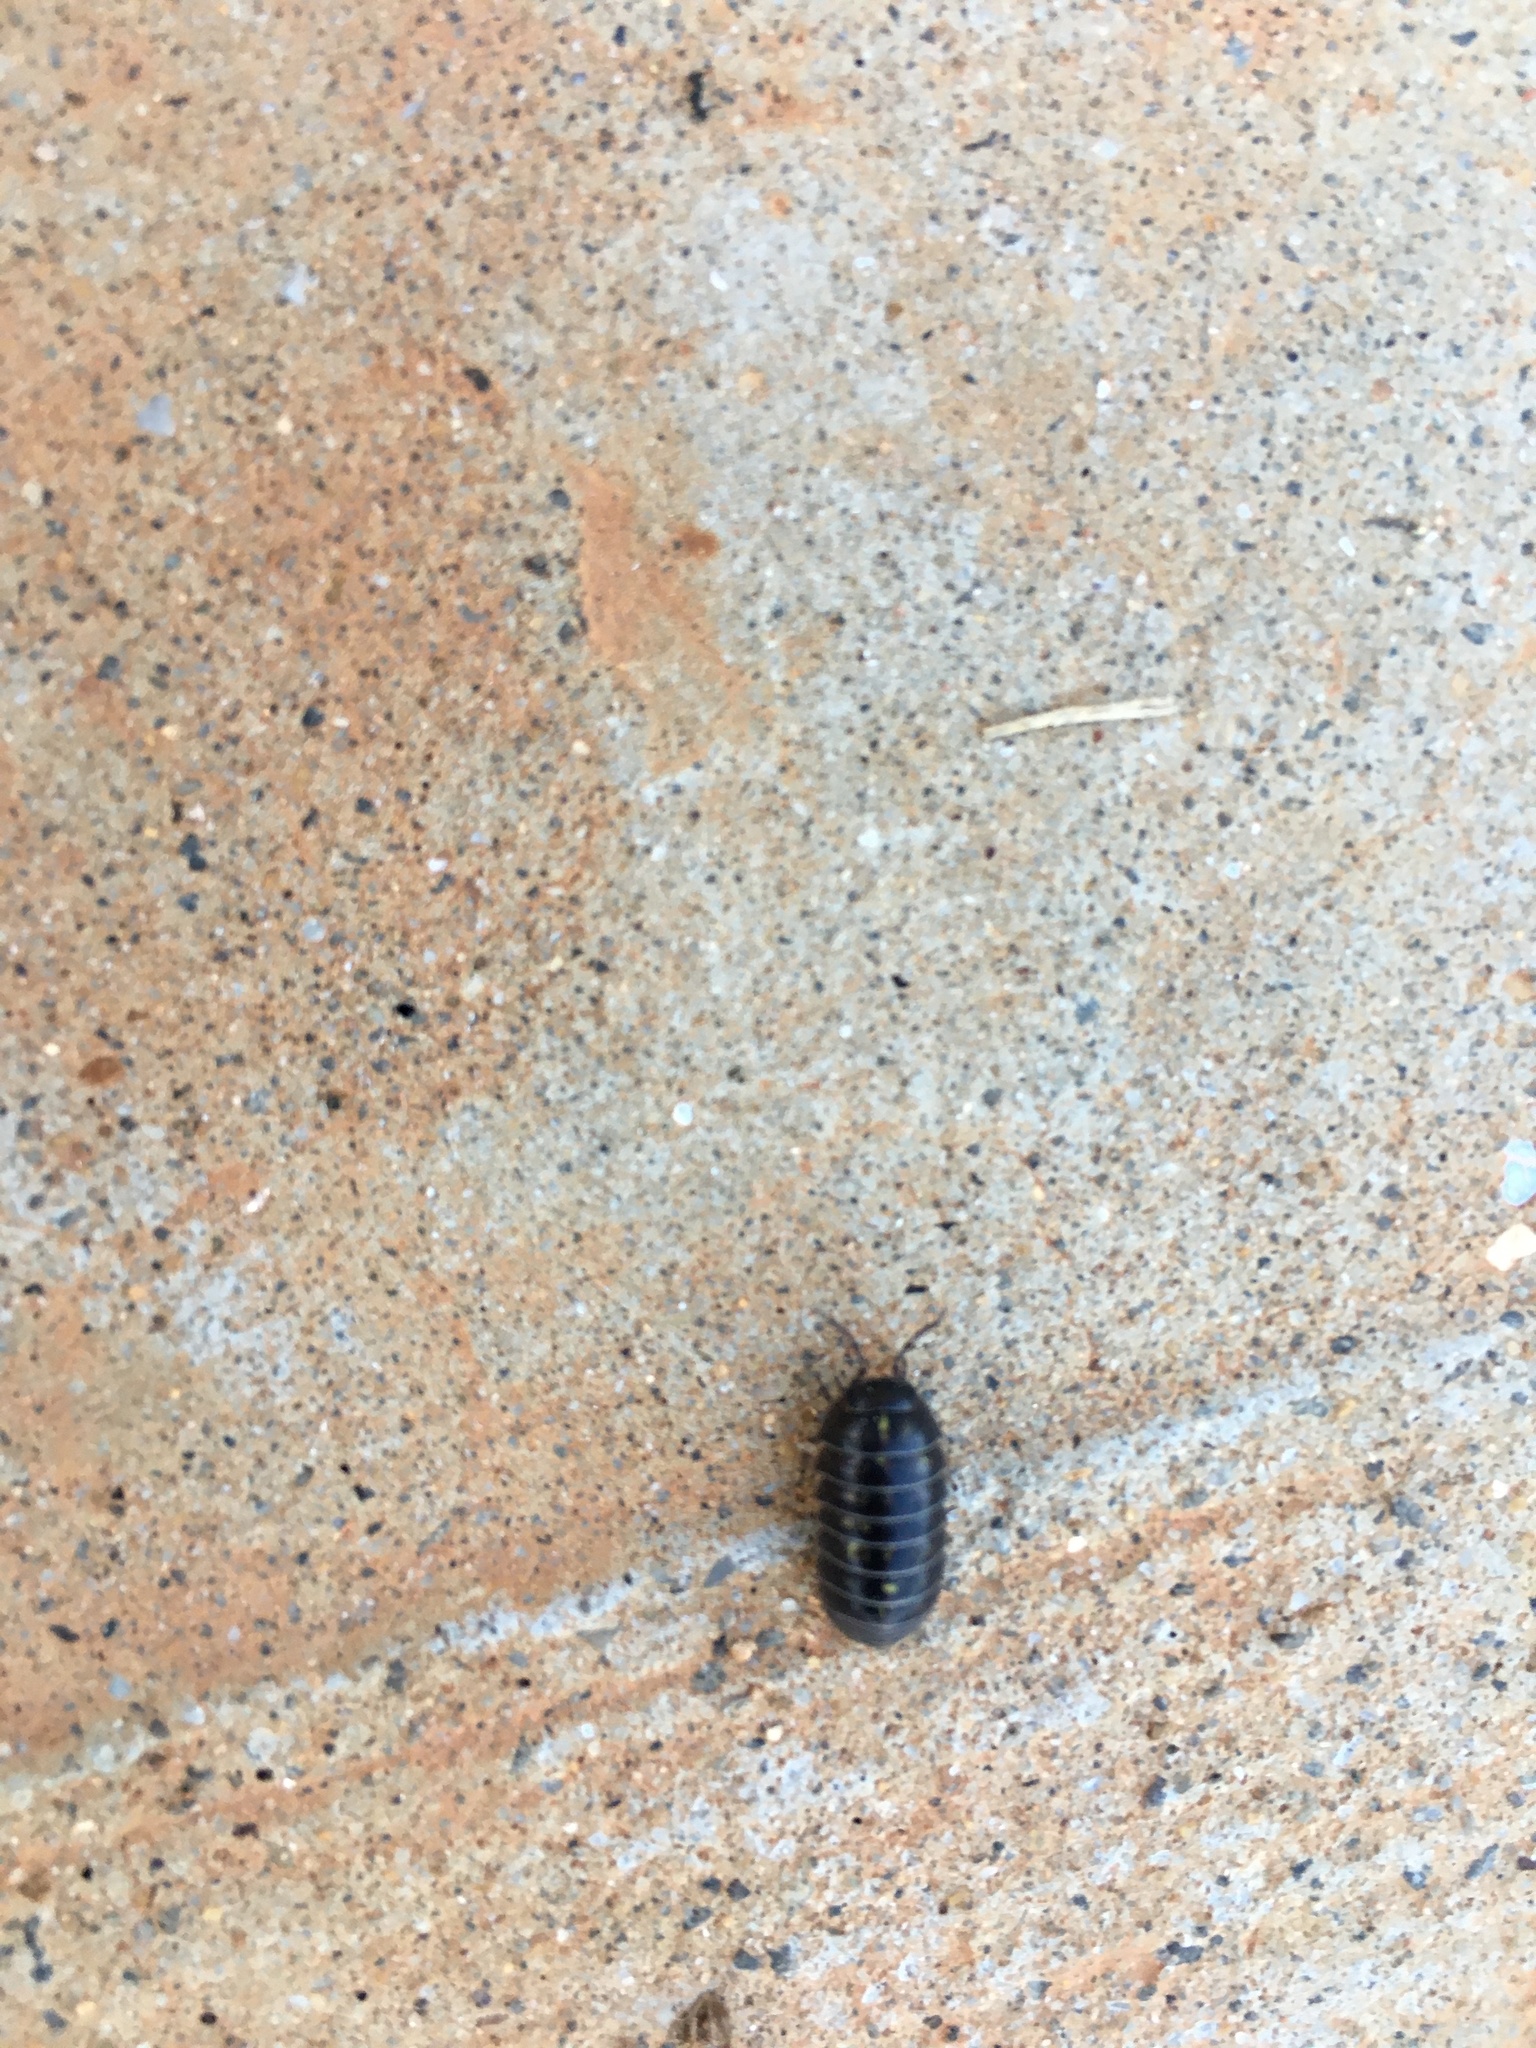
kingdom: Animalia
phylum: Arthropoda
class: Malacostraca
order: Isopoda
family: Armadillidiidae
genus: Armadillidium
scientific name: Armadillidium vulgare
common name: Common pill woodlouse
